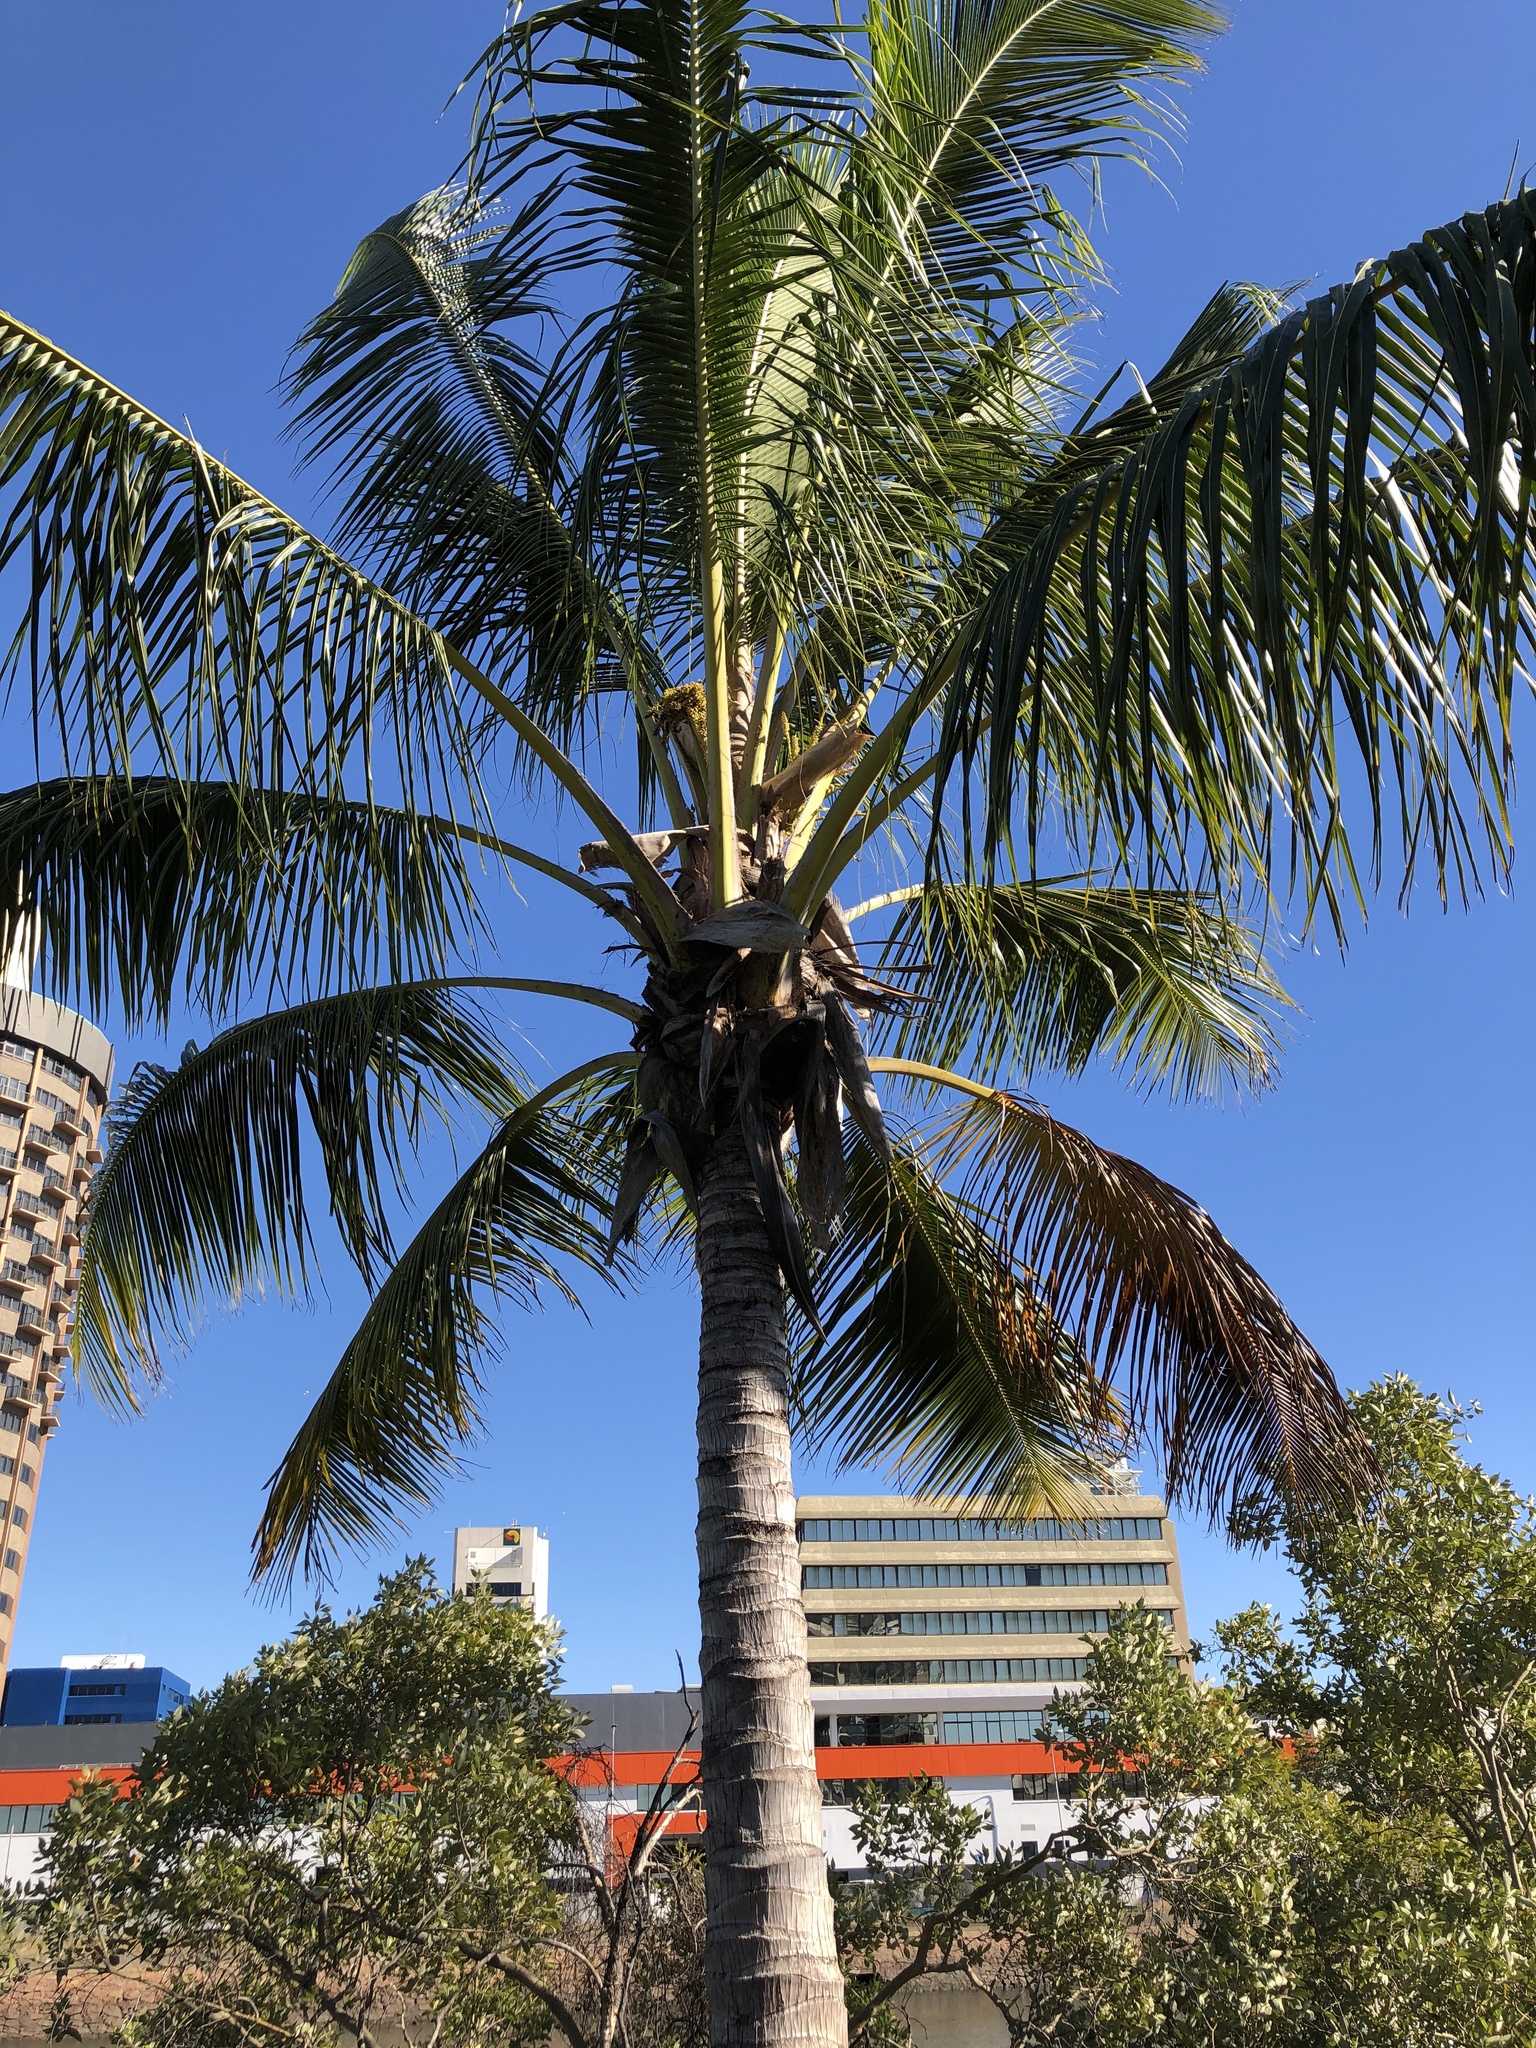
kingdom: Plantae
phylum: Tracheophyta
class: Liliopsida
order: Arecales
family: Arecaceae
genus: Cocos
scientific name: Cocos nucifera
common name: Coconut palm
